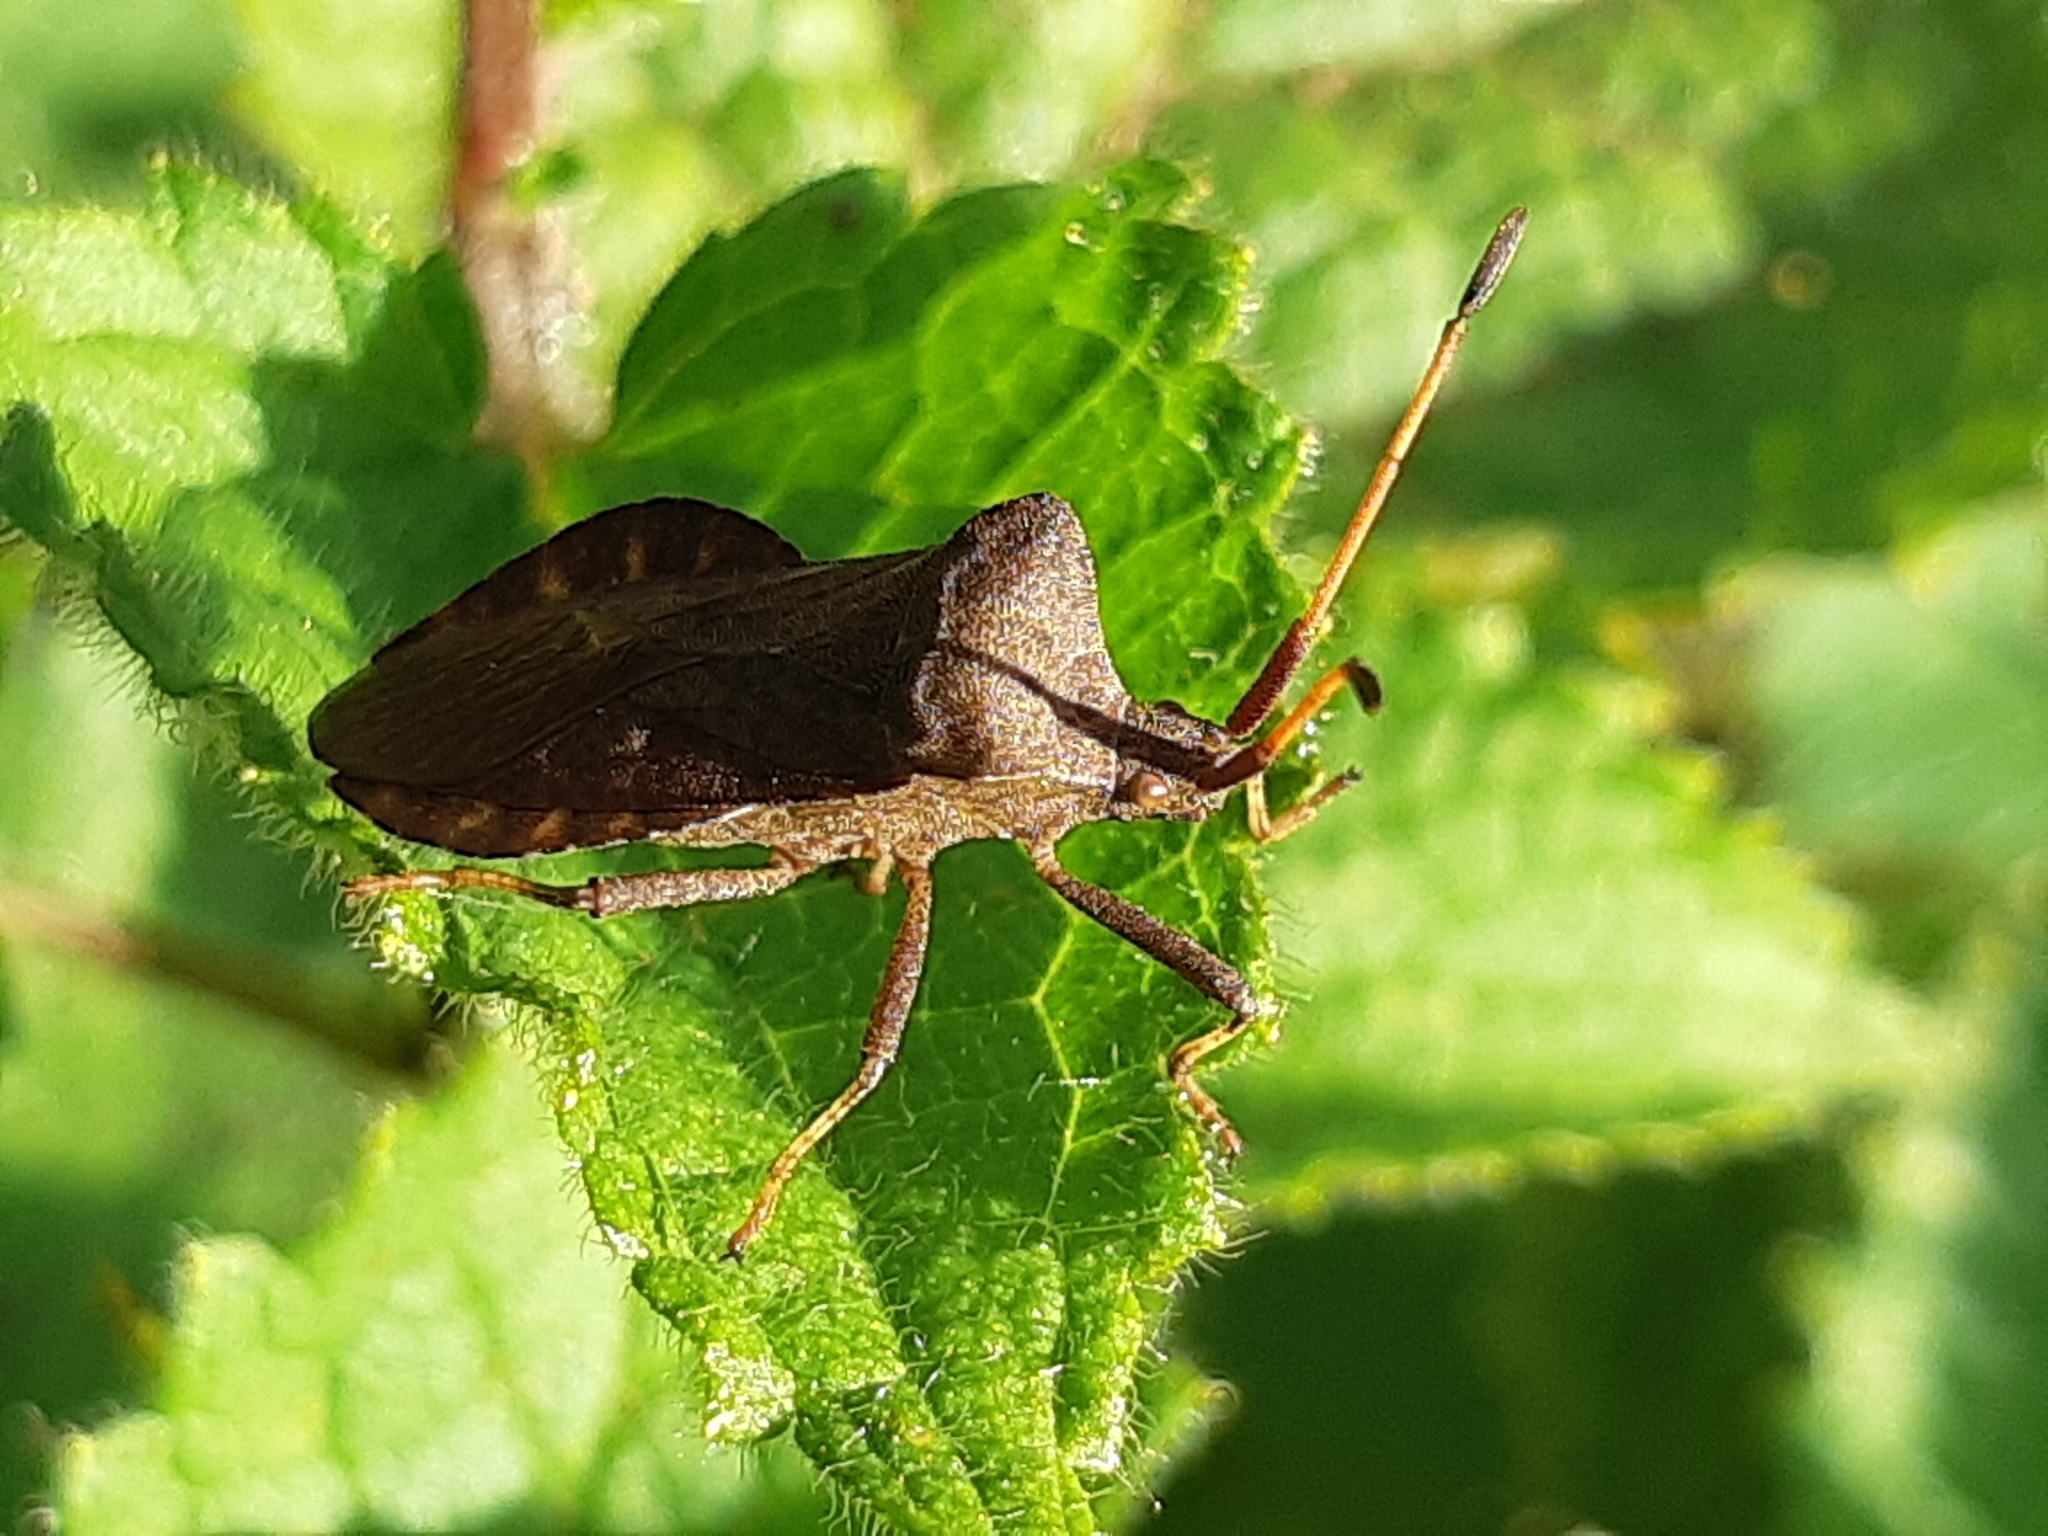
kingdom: Animalia
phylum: Arthropoda
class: Insecta
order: Hemiptera
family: Coreidae
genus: Coreus
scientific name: Coreus marginatus
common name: Dock bug
